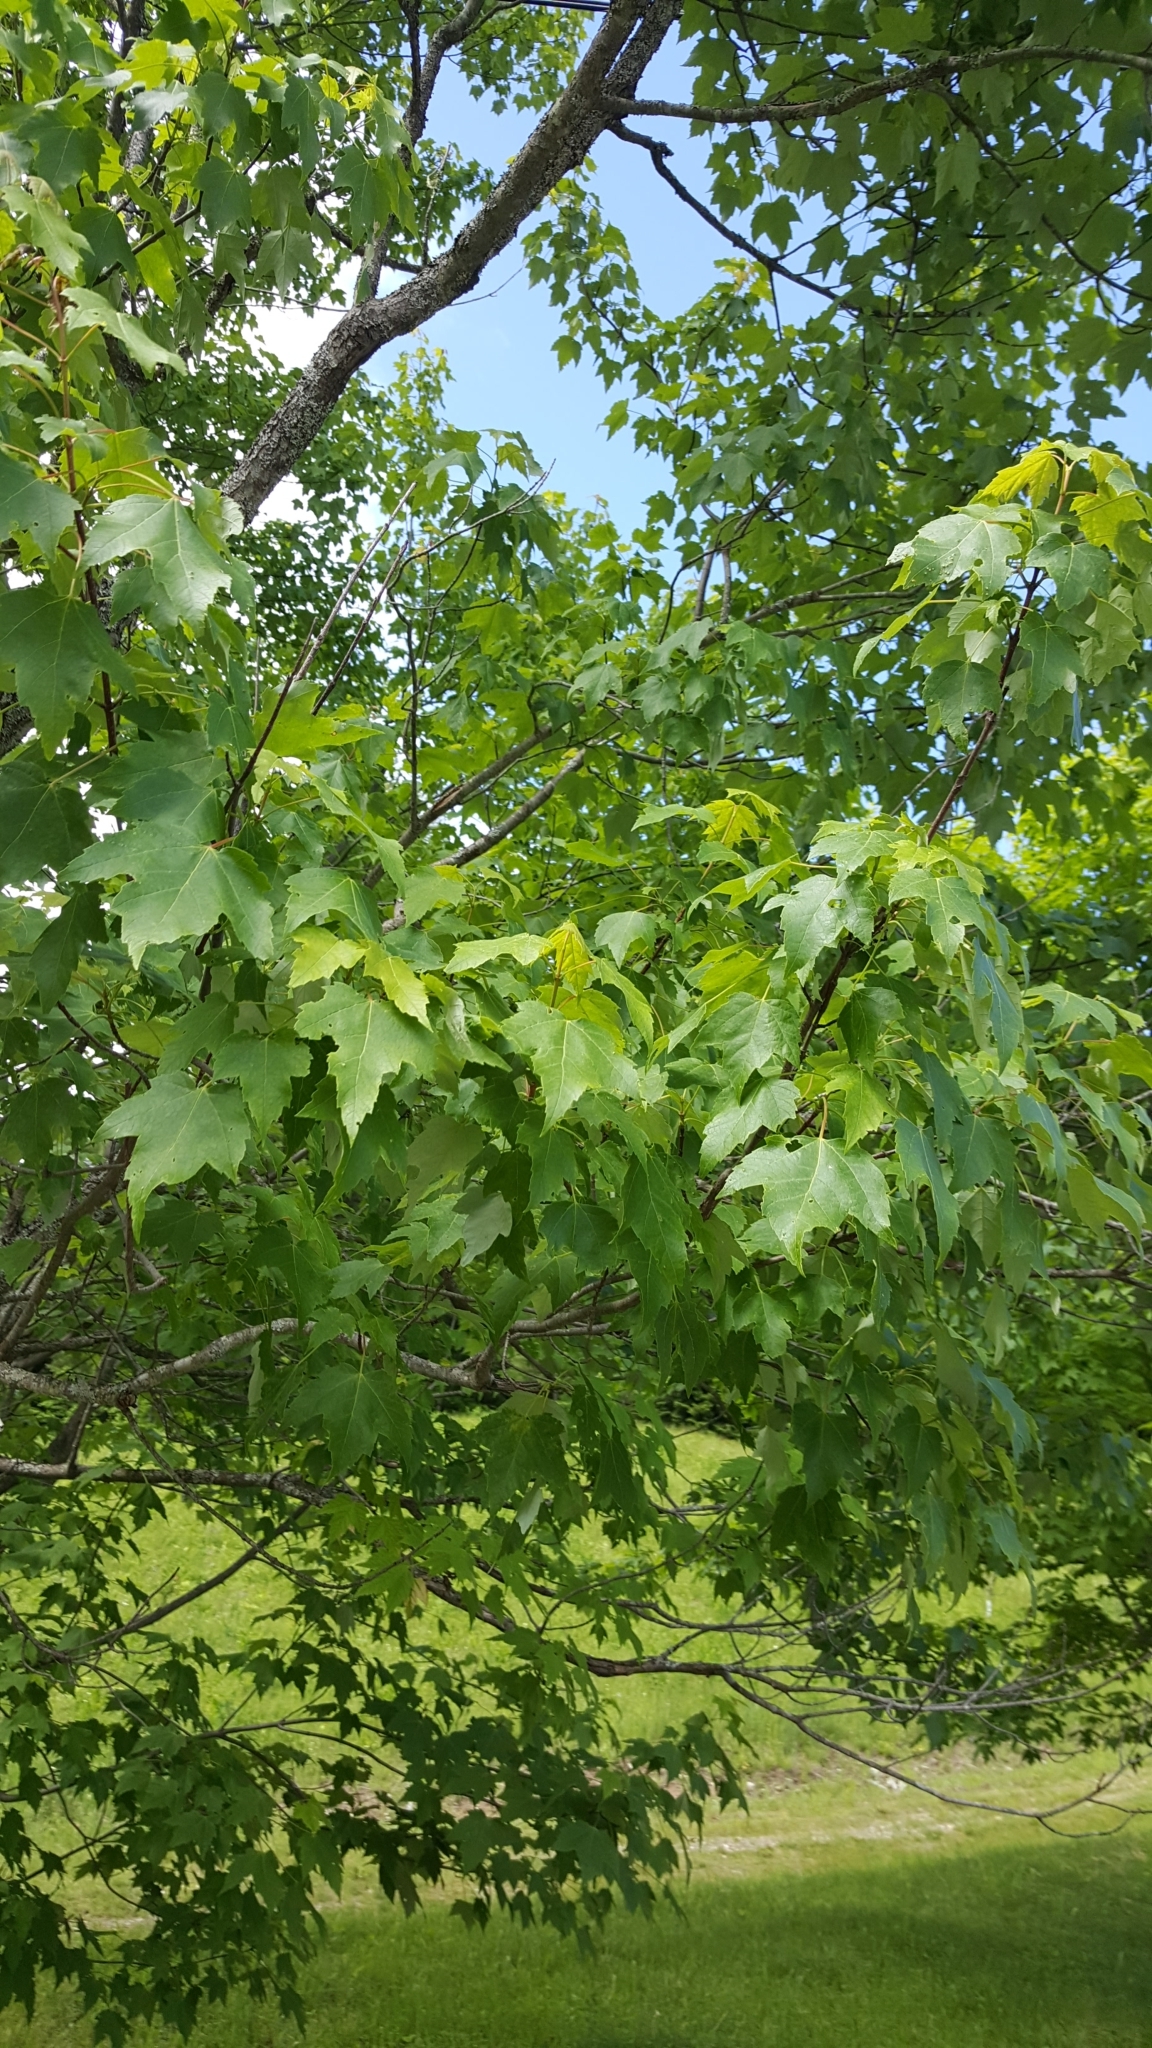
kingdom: Plantae
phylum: Tracheophyta
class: Magnoliopsida
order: Sapindales
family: Sapindaceae
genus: Acer
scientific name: Acer rubrum
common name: Red maple
